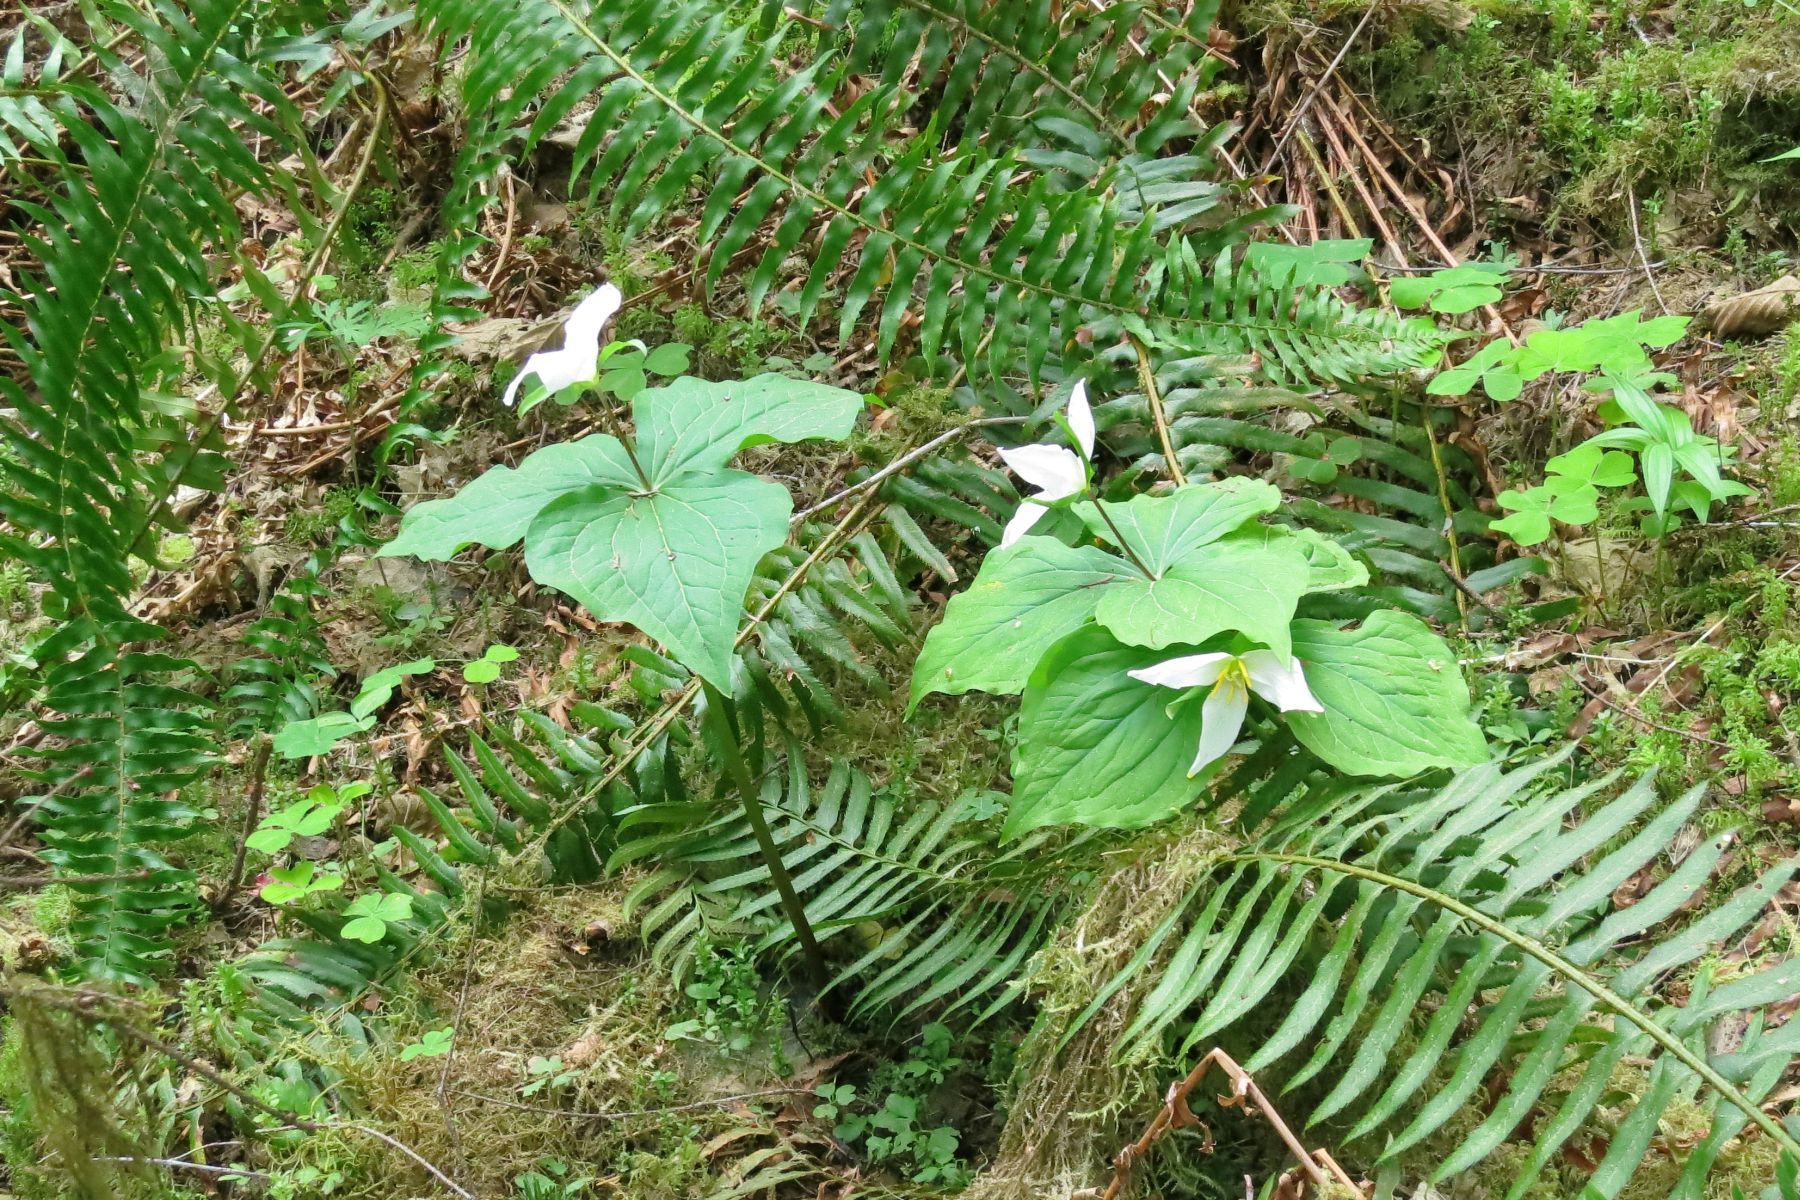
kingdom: Plantae
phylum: Tracheophyta
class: Liliopsida
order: Liliales
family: Melanthiaceae
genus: Trillium
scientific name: Trillium ovatum
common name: Pacific trillium
